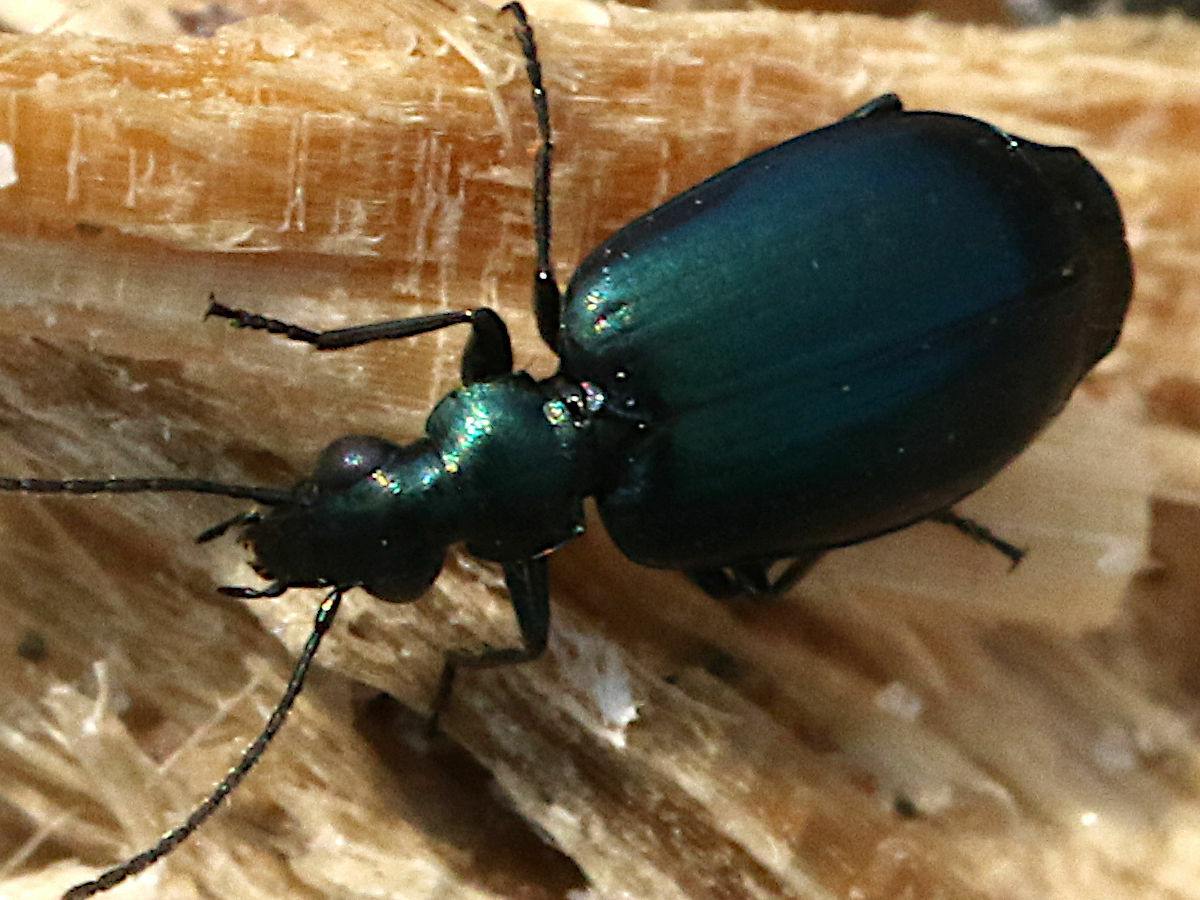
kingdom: Animalia
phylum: Arthropoda
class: Insecta
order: Coleoptera
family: Carabidae
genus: Lebia
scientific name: Lebia viridis
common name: Flower lebia beetle
